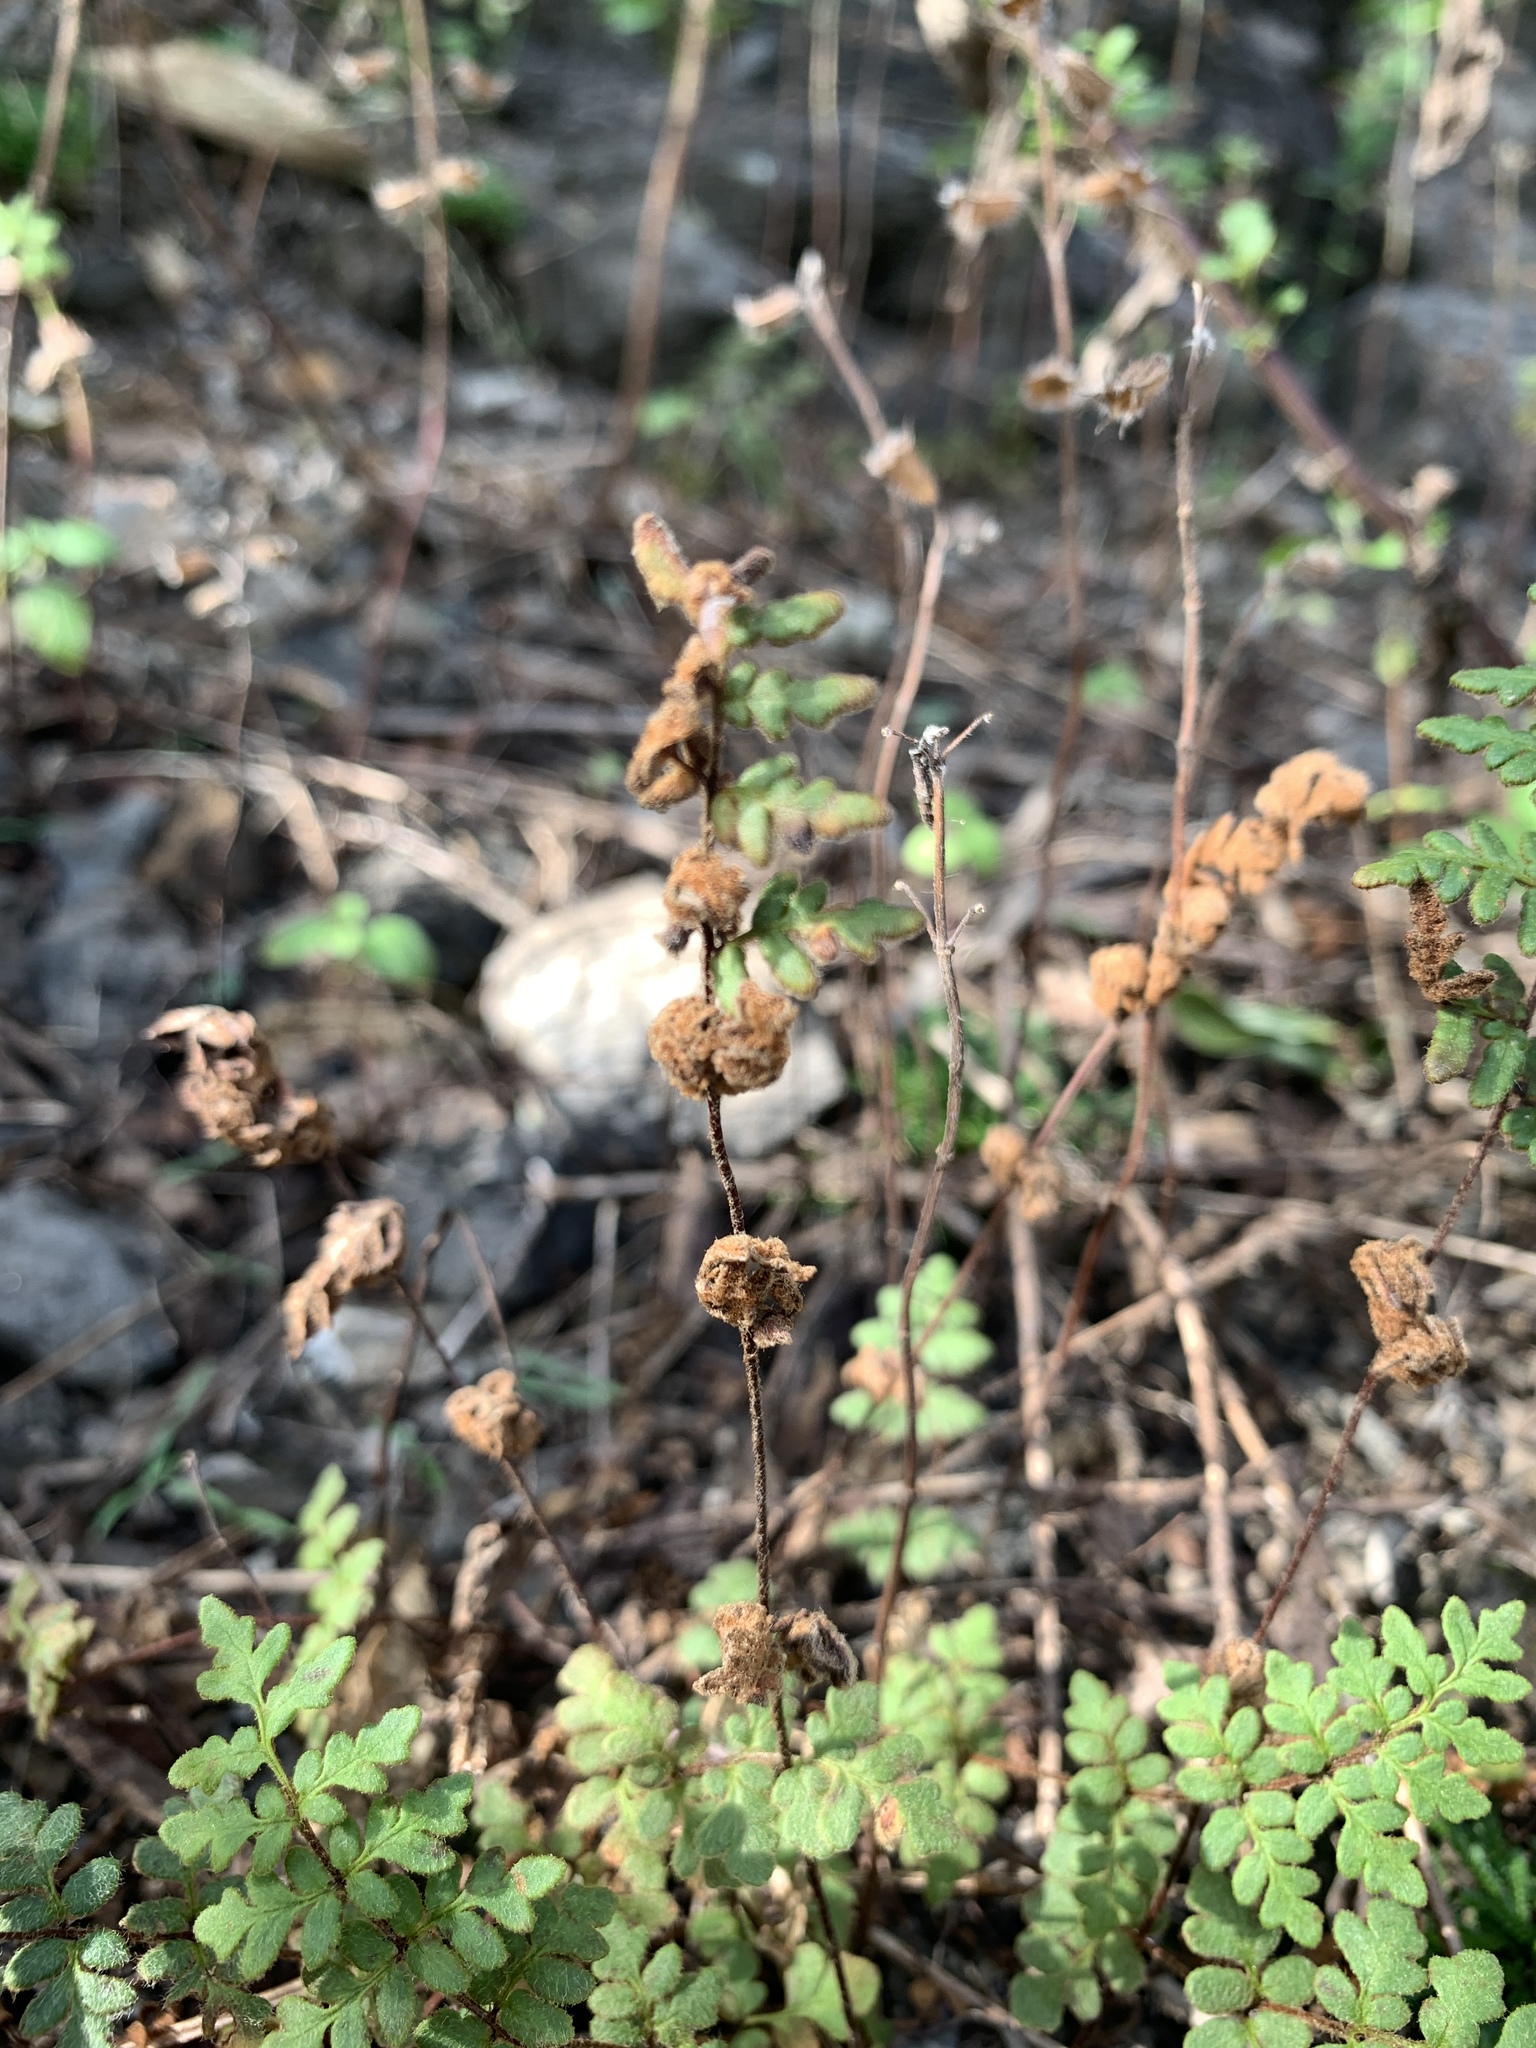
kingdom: Plantae
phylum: Tracheophyta
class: Polypodiopsida
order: Polypodiales
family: Pteridaceae
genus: Cheilanthes
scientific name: Cheilanthes nudiuscula
